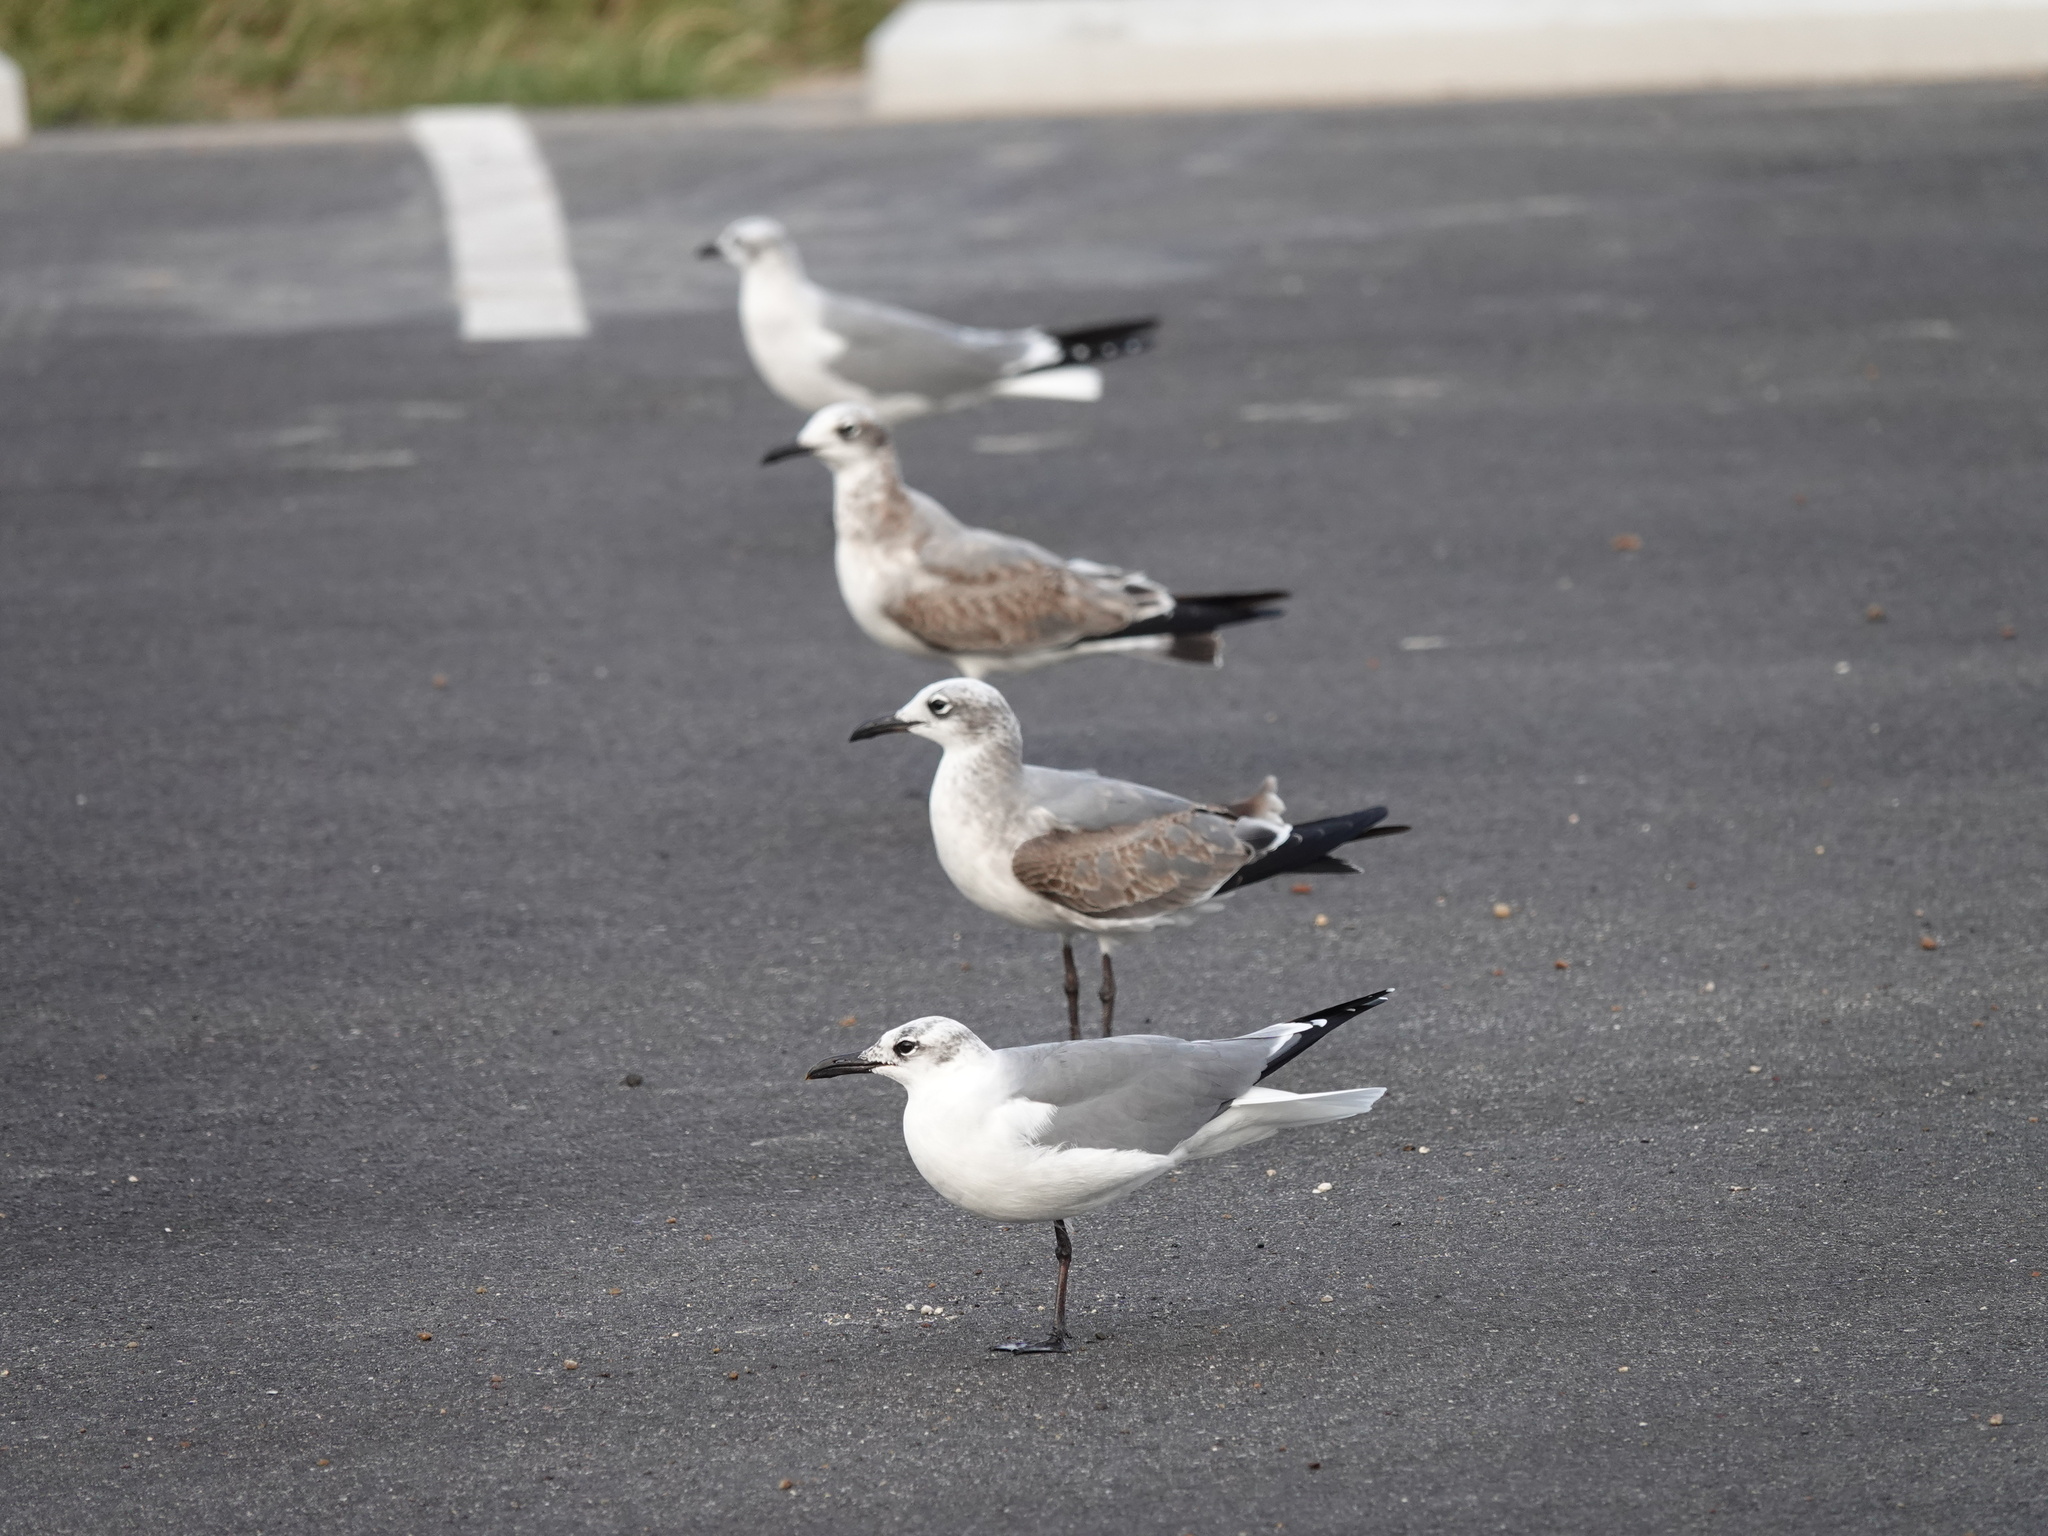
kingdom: Animalia
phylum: Chordata
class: Aves
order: Charadriiformes
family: Laridae
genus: Leucophaeus
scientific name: Leucophaeus atricilla
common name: Laughing gull
